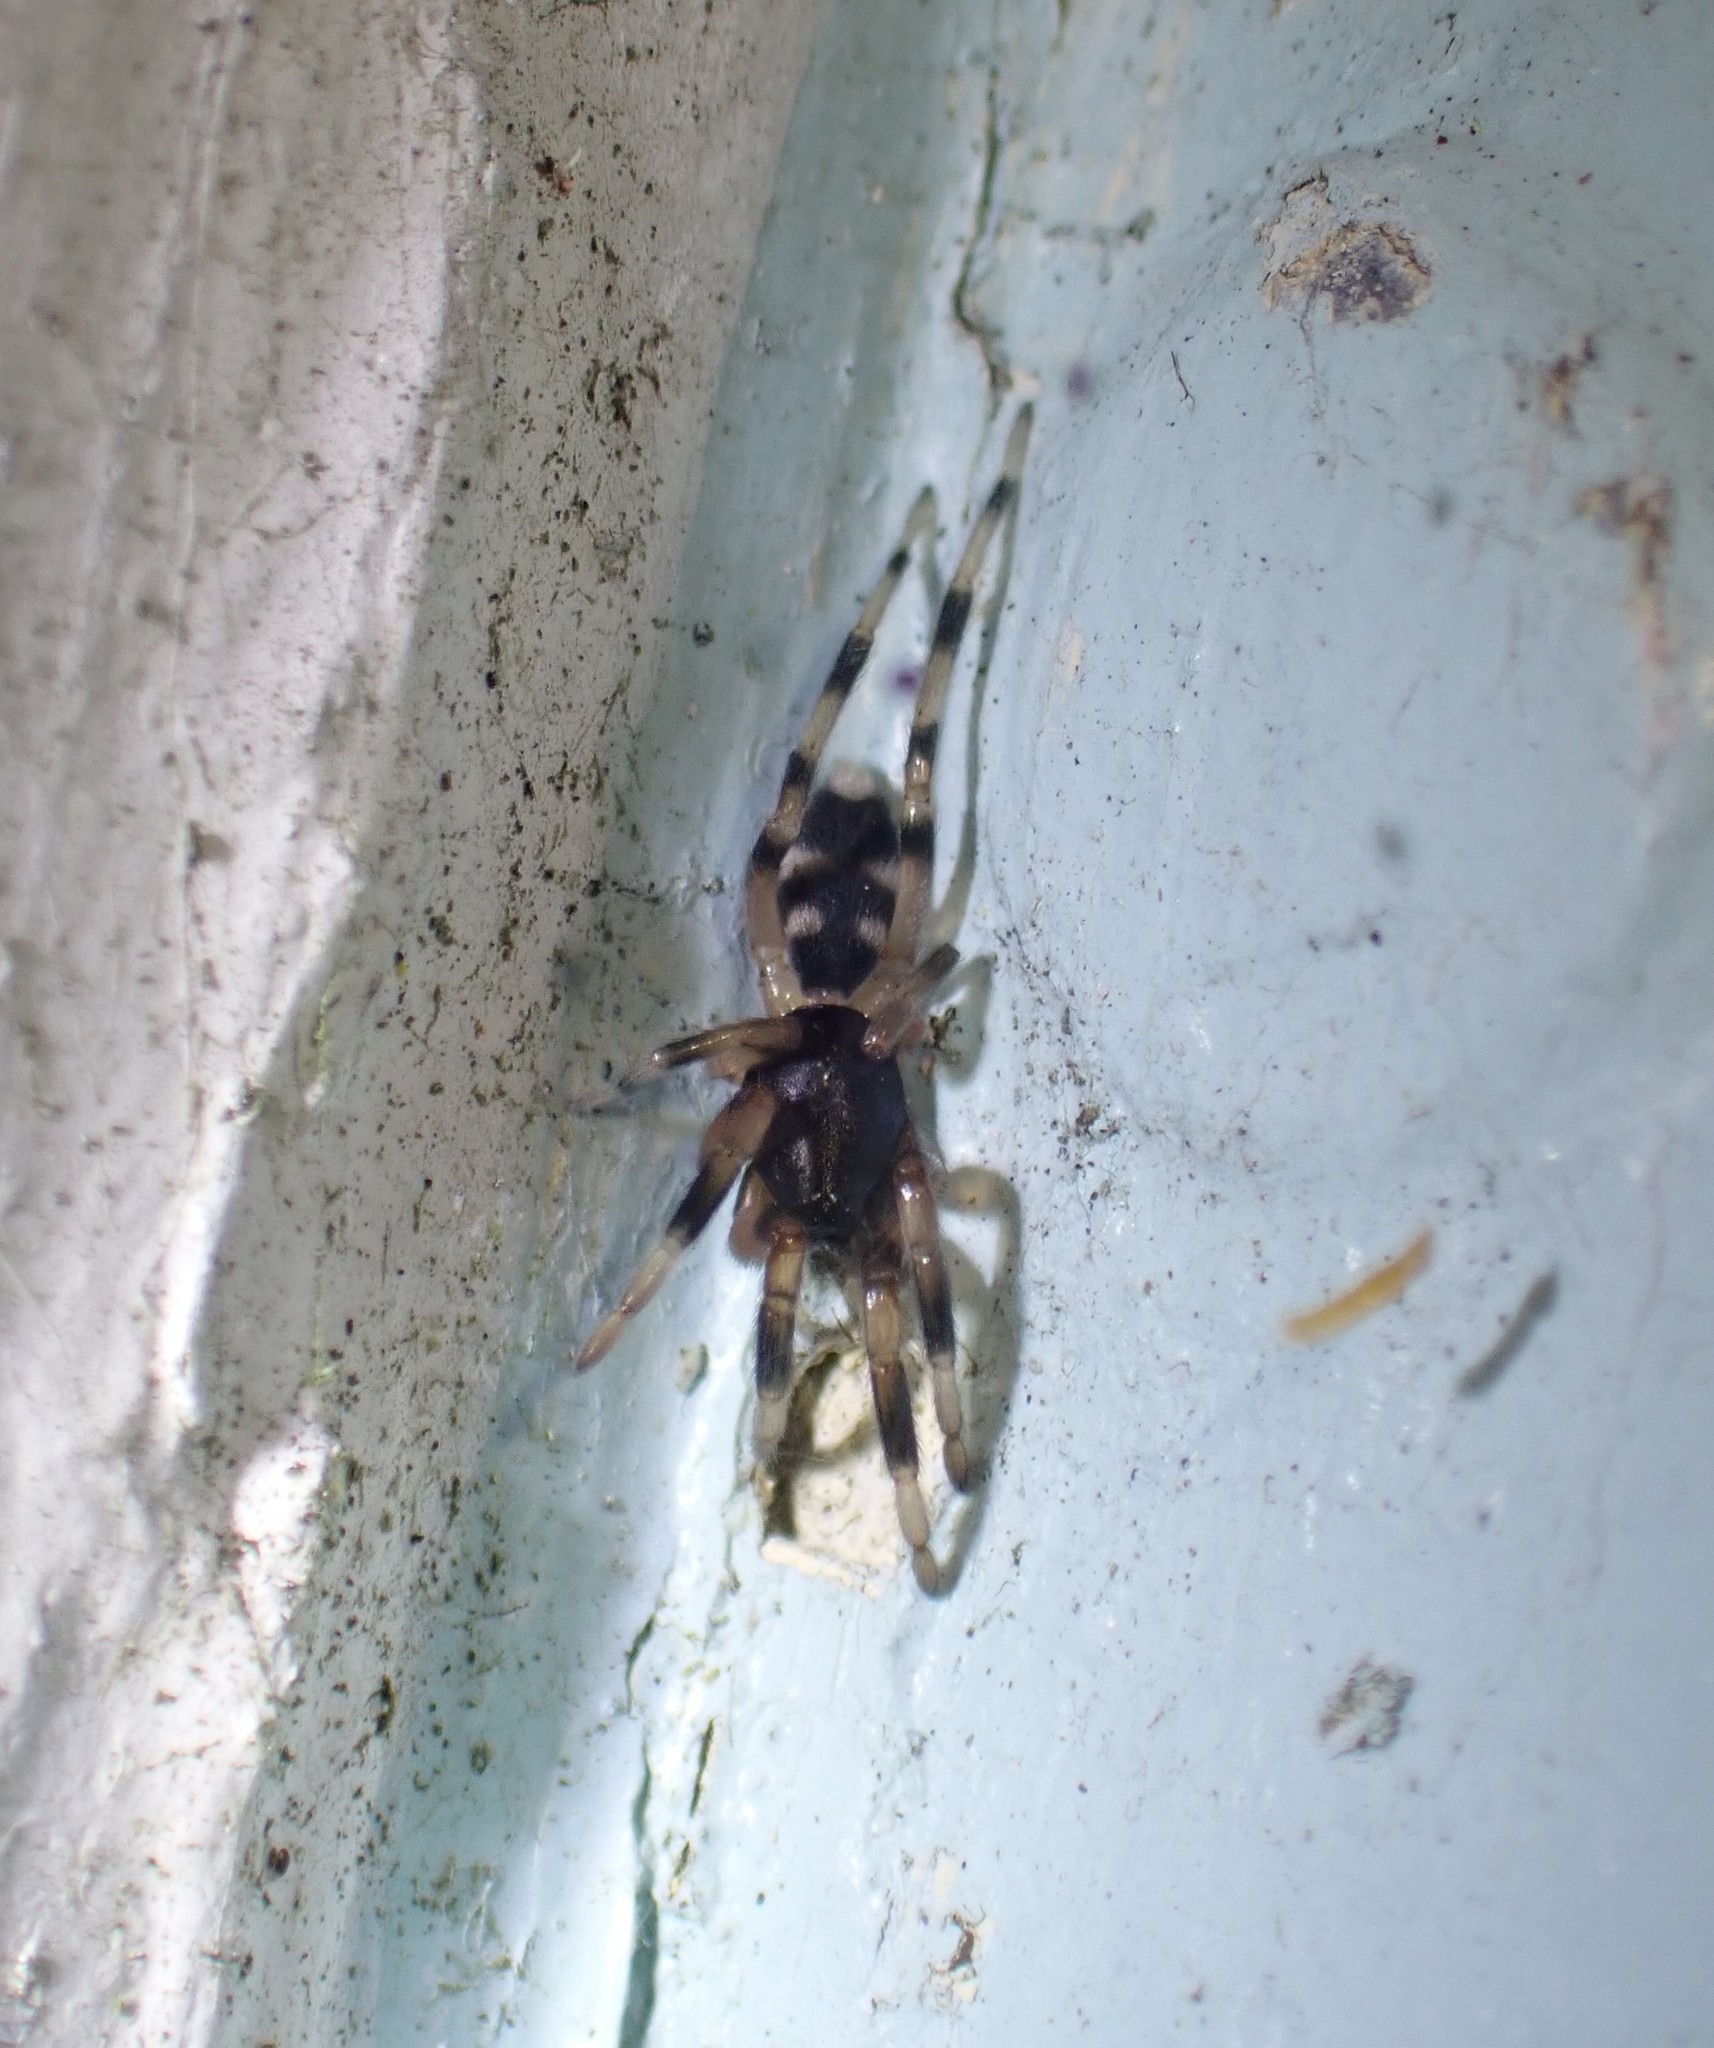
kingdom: Animalia
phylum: Arthropoda
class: Arachnida
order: Araneae
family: Lamponidae
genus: Lampona
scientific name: Lampona murina
